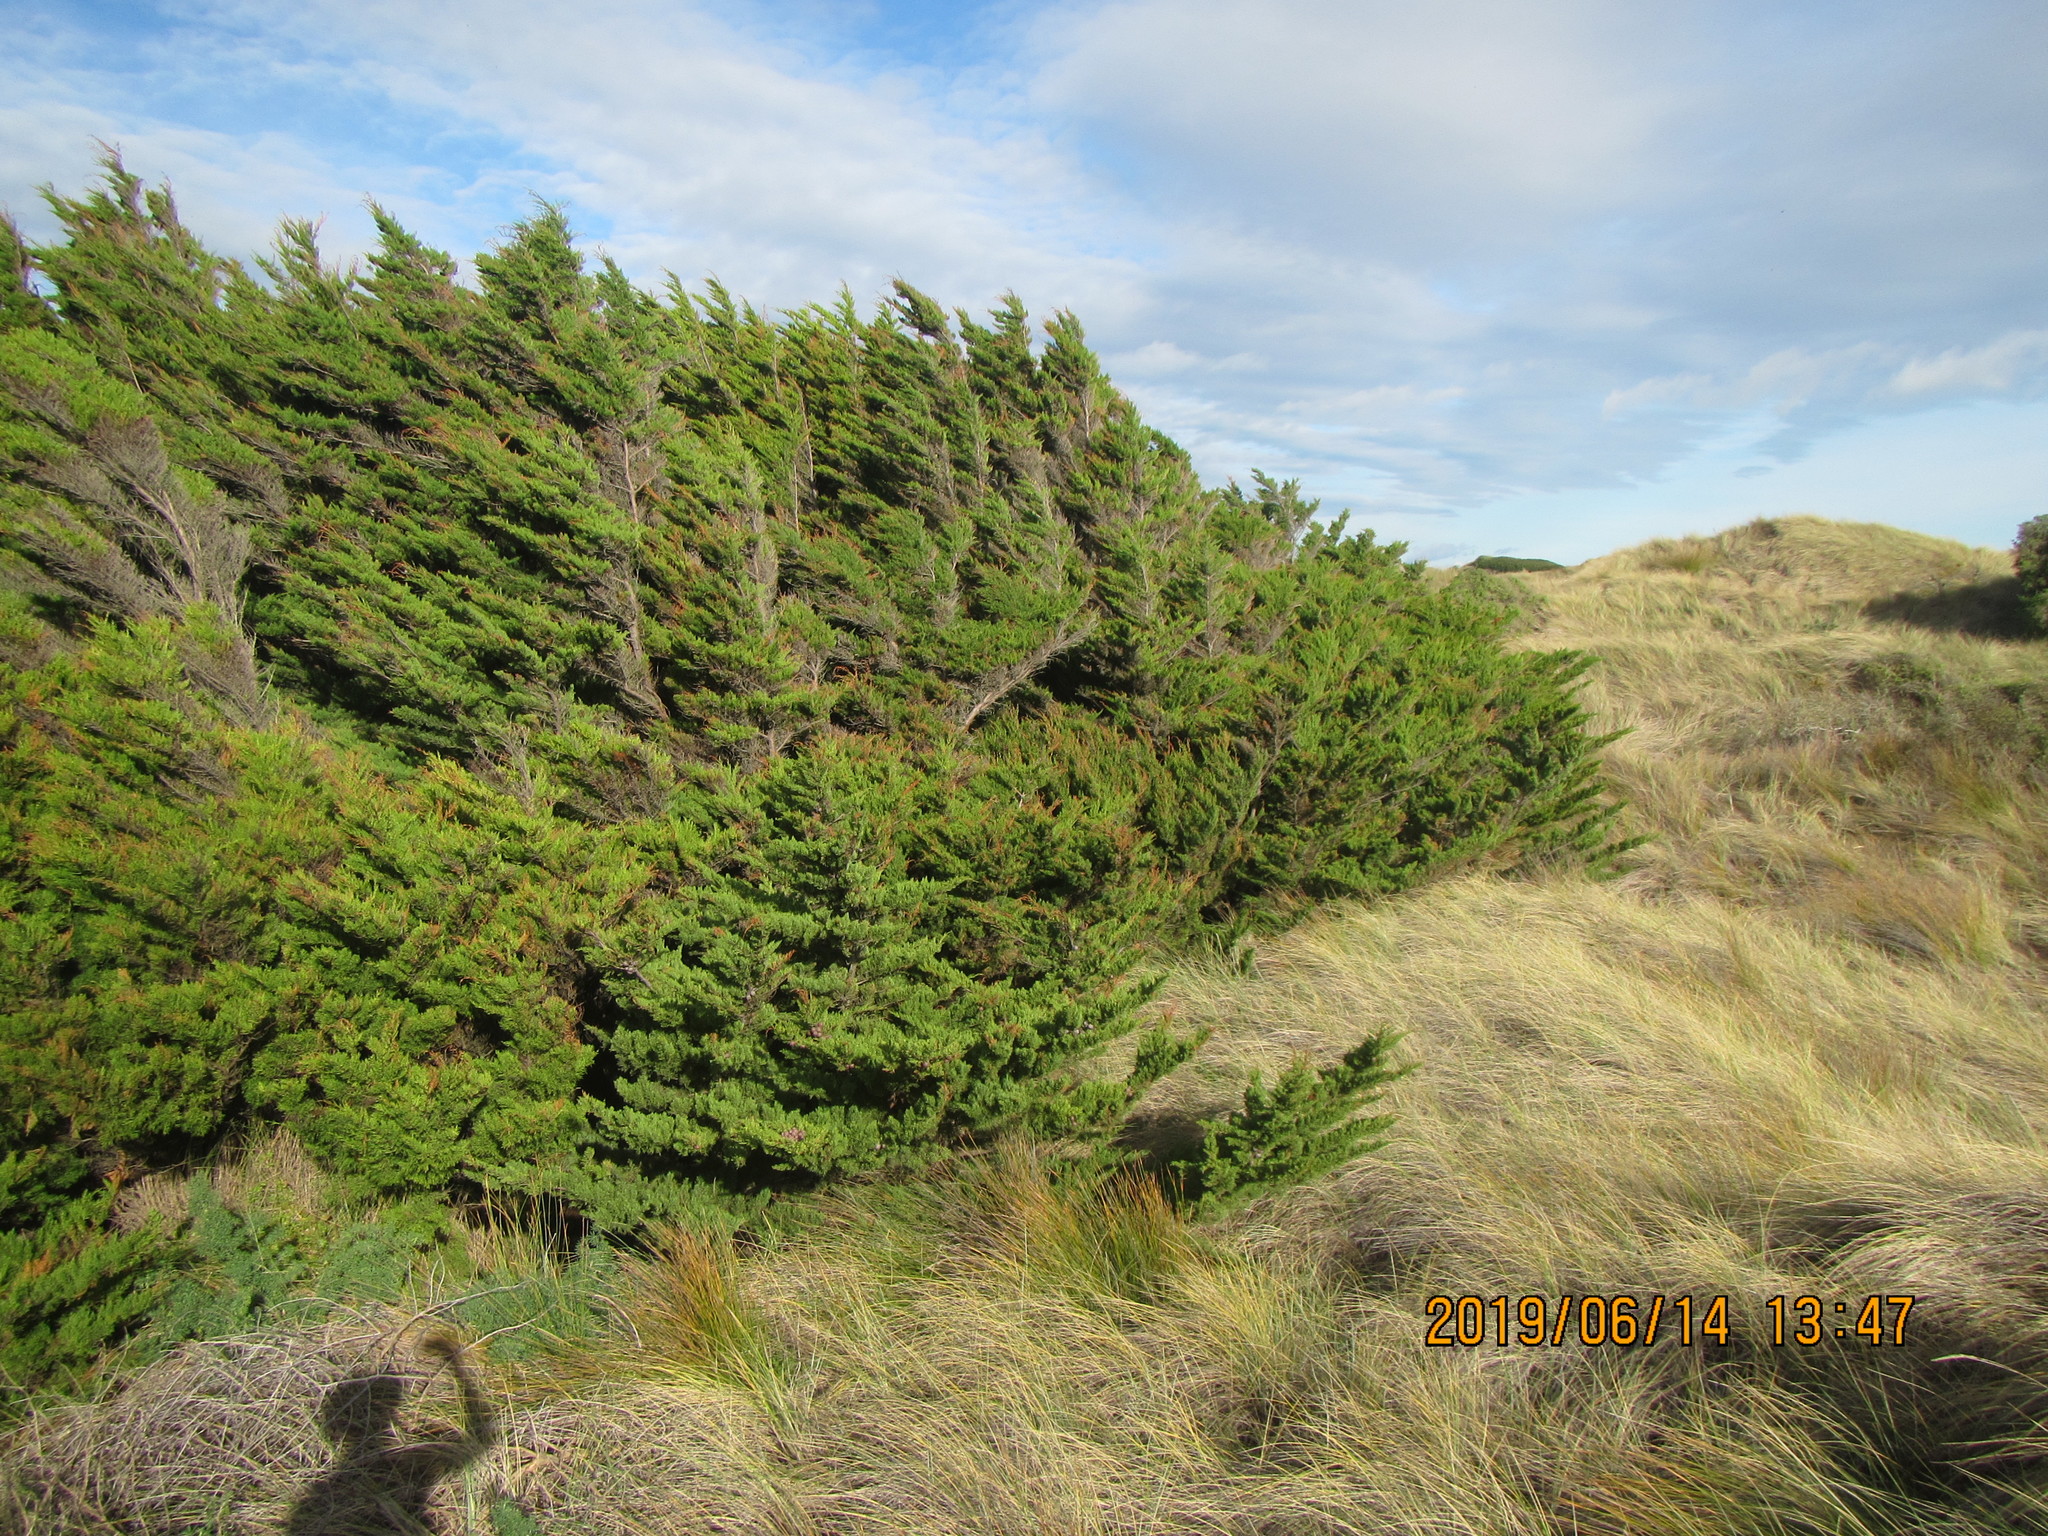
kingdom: Plantae
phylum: Tracheophyta
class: Pinopsida
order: Pinales
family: Cupressaceae
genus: Cupressus
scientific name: Cupressus macrocarpa
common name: Monterey cypress
